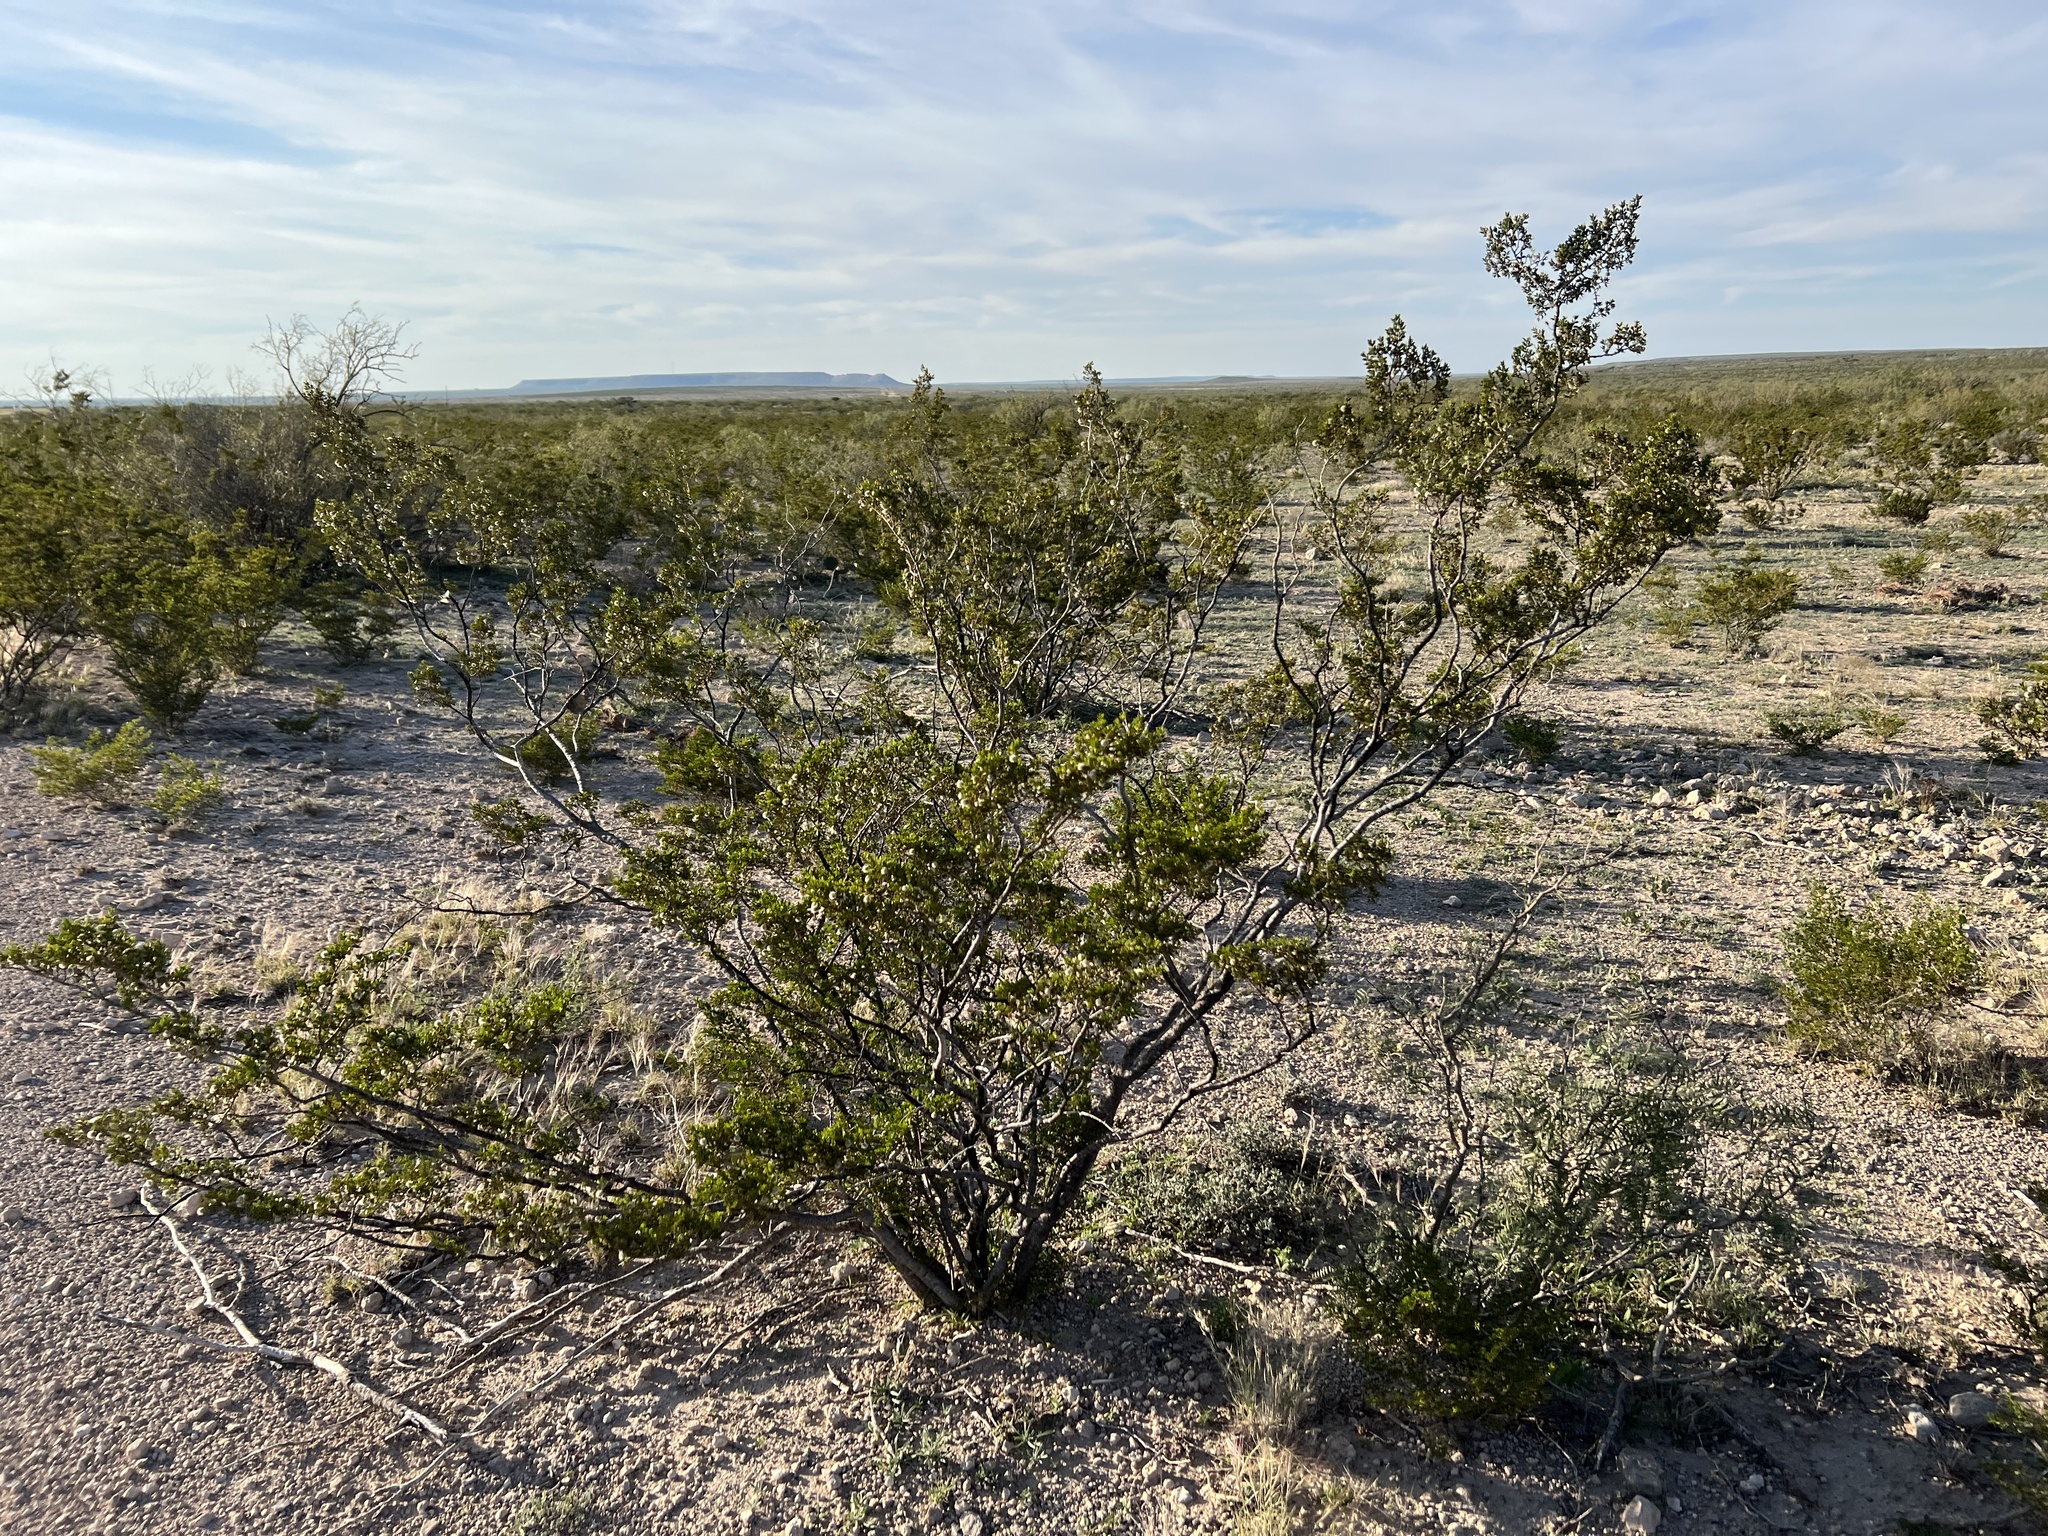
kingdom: Plantae
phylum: Tracheophyta
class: Magnoliopsida
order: Zygophyllales
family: Zygophyllaceae
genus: Larrea
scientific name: Larrea tridentata
